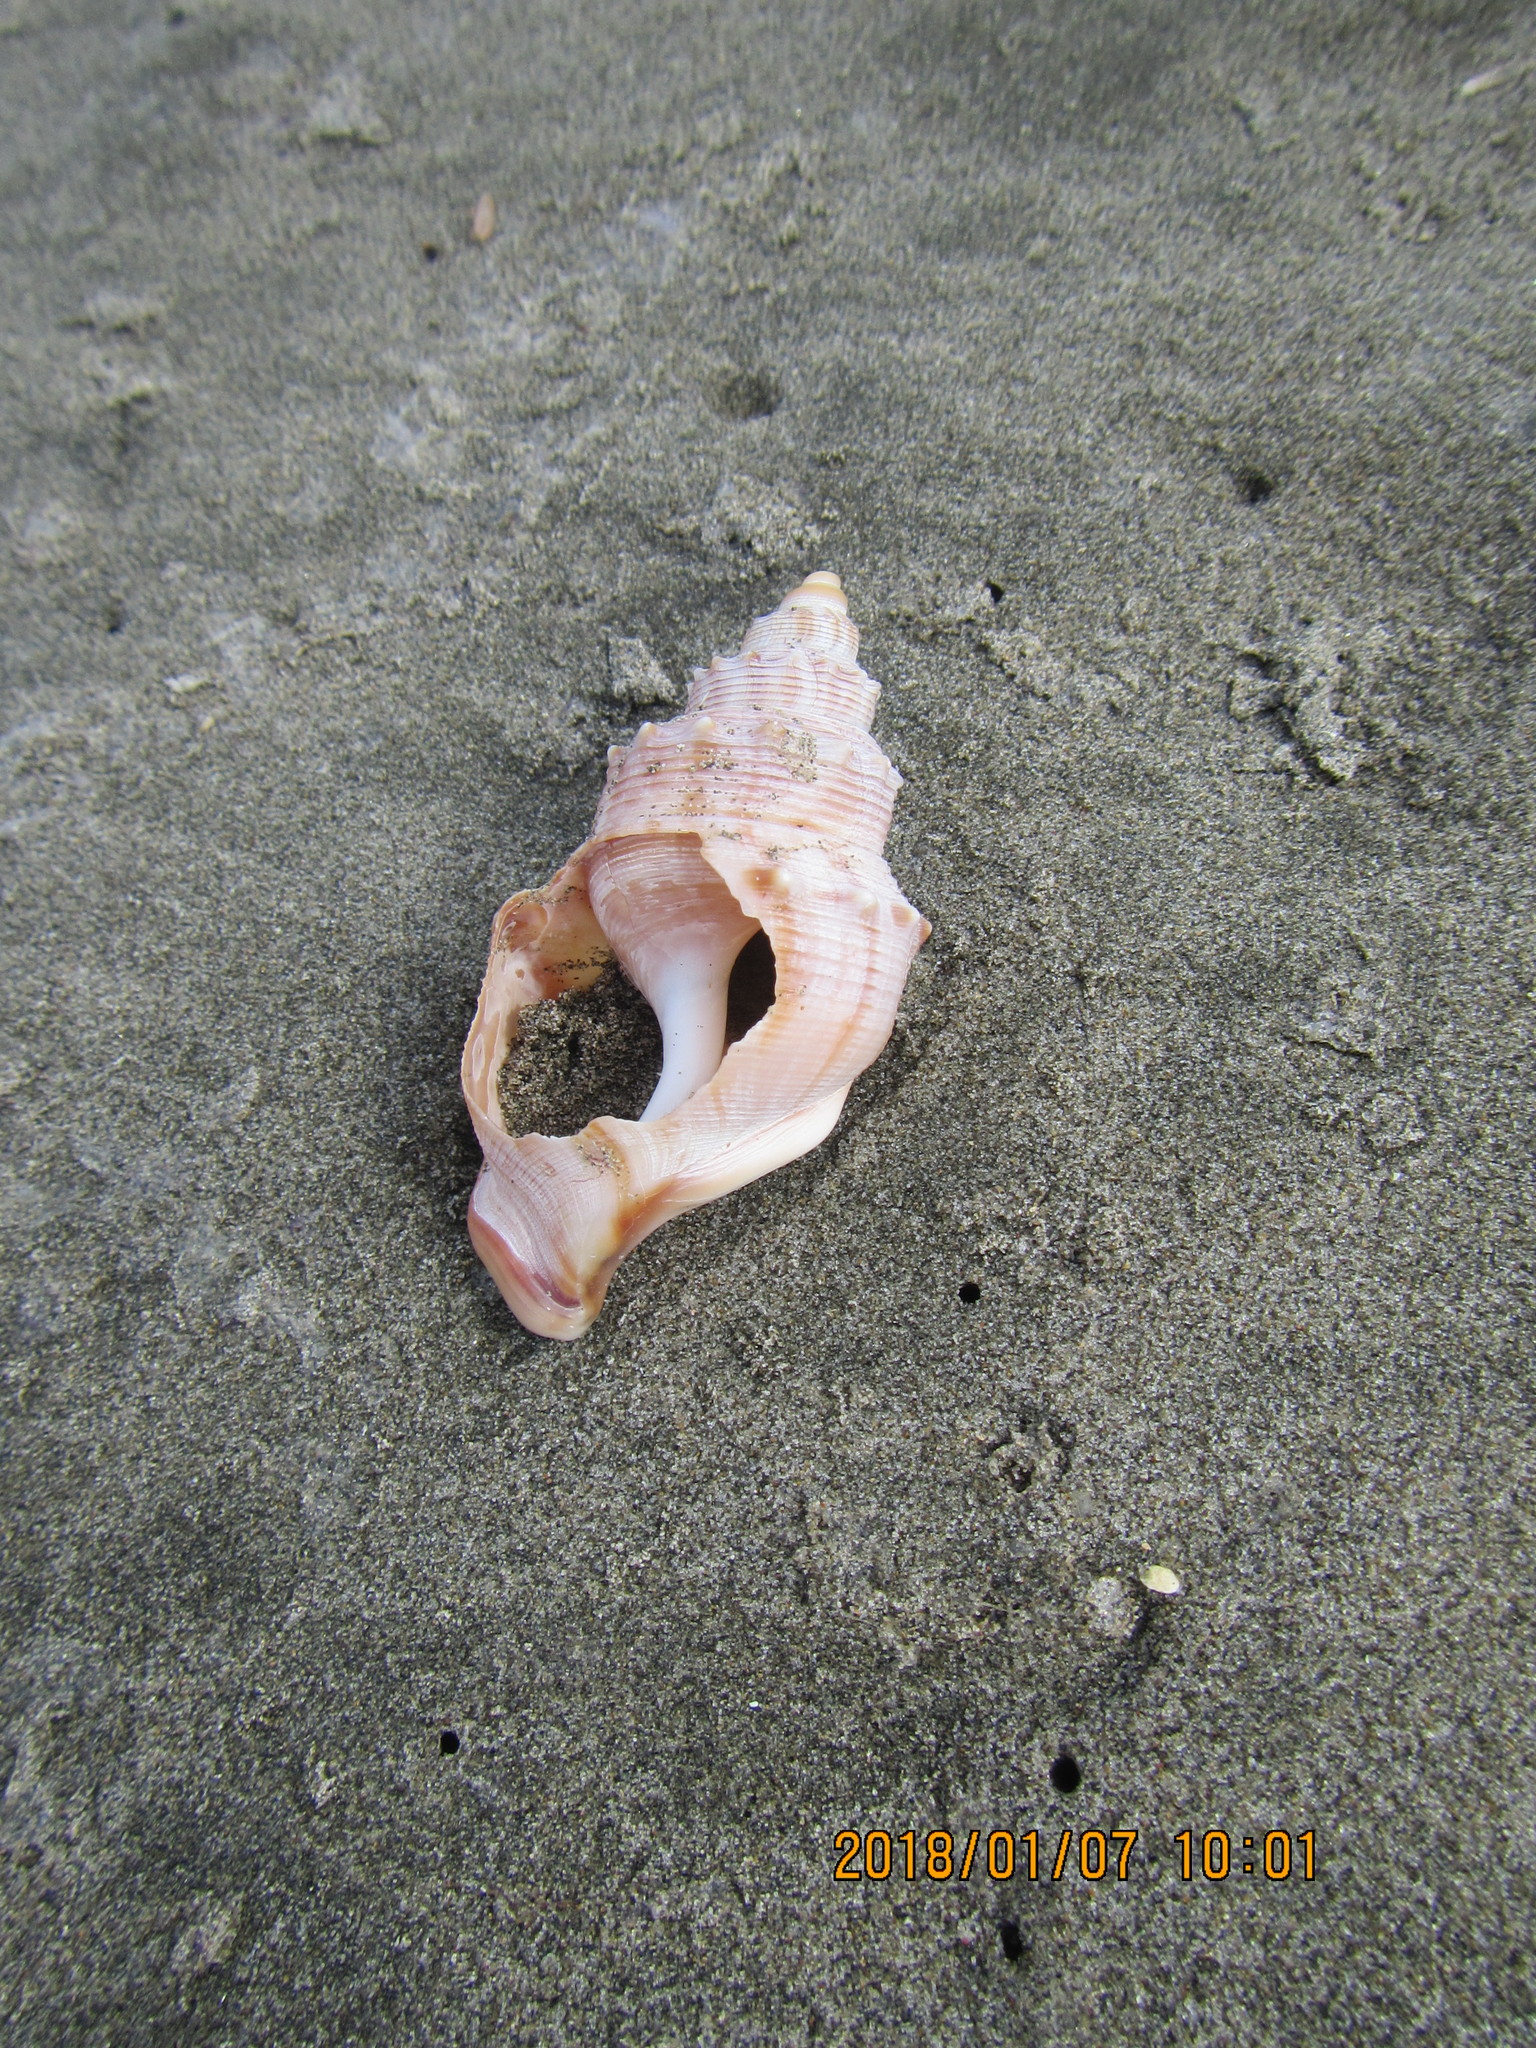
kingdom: Animalia
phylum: Mollusca
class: Gastropoda
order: Littorinimorpha
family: Struthiolariidae
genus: Struthiolaria
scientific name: Struthiolaria papulosa
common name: Large ostrich foot
